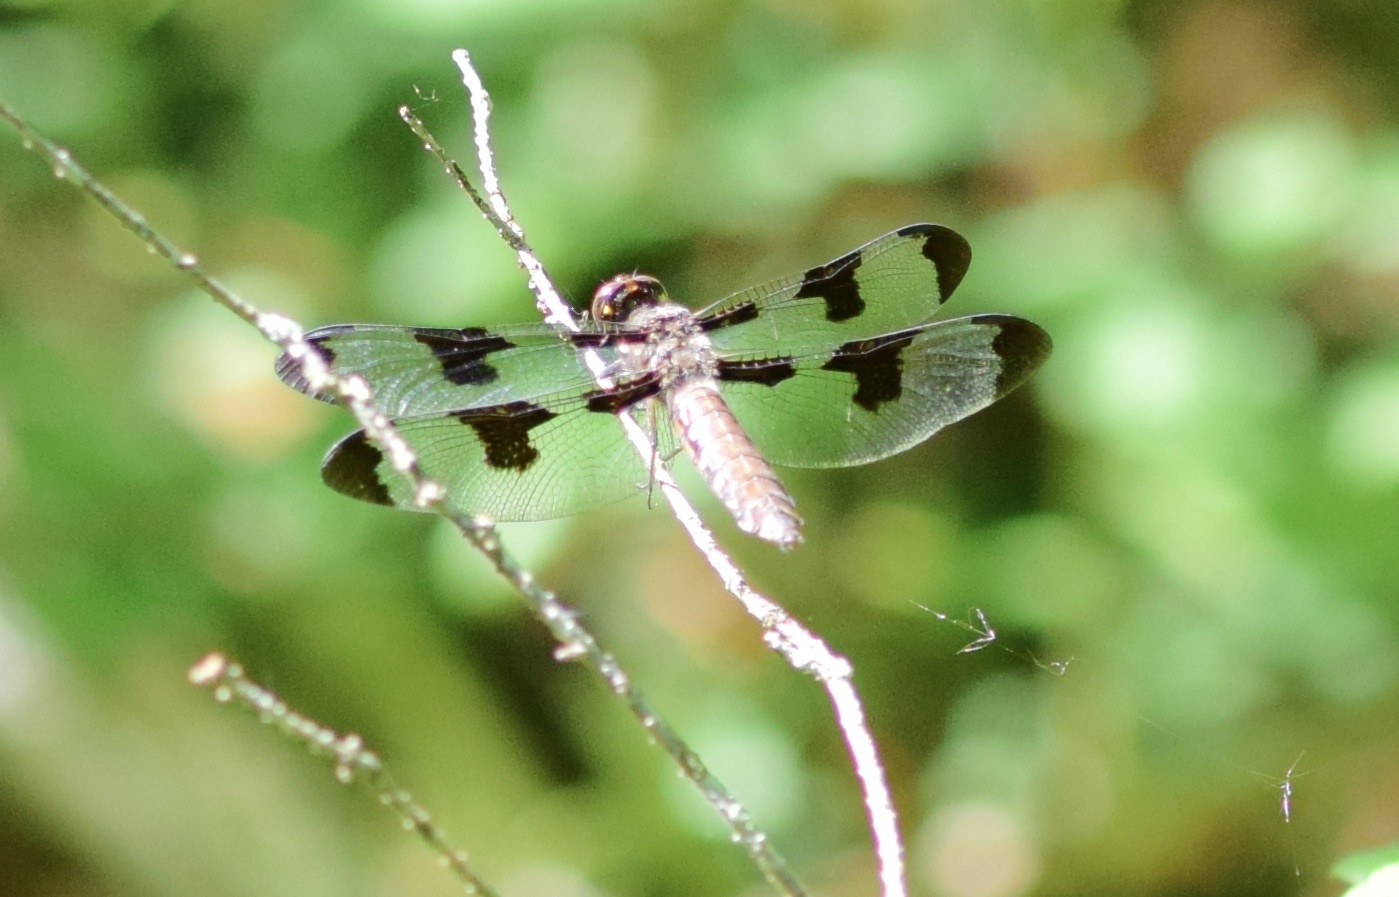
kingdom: Animalia
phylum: Arthropoda
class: Insecta
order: Odonata
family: Libellulidae
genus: Plathemis
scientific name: Plathemis lydia
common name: Common whitetail
